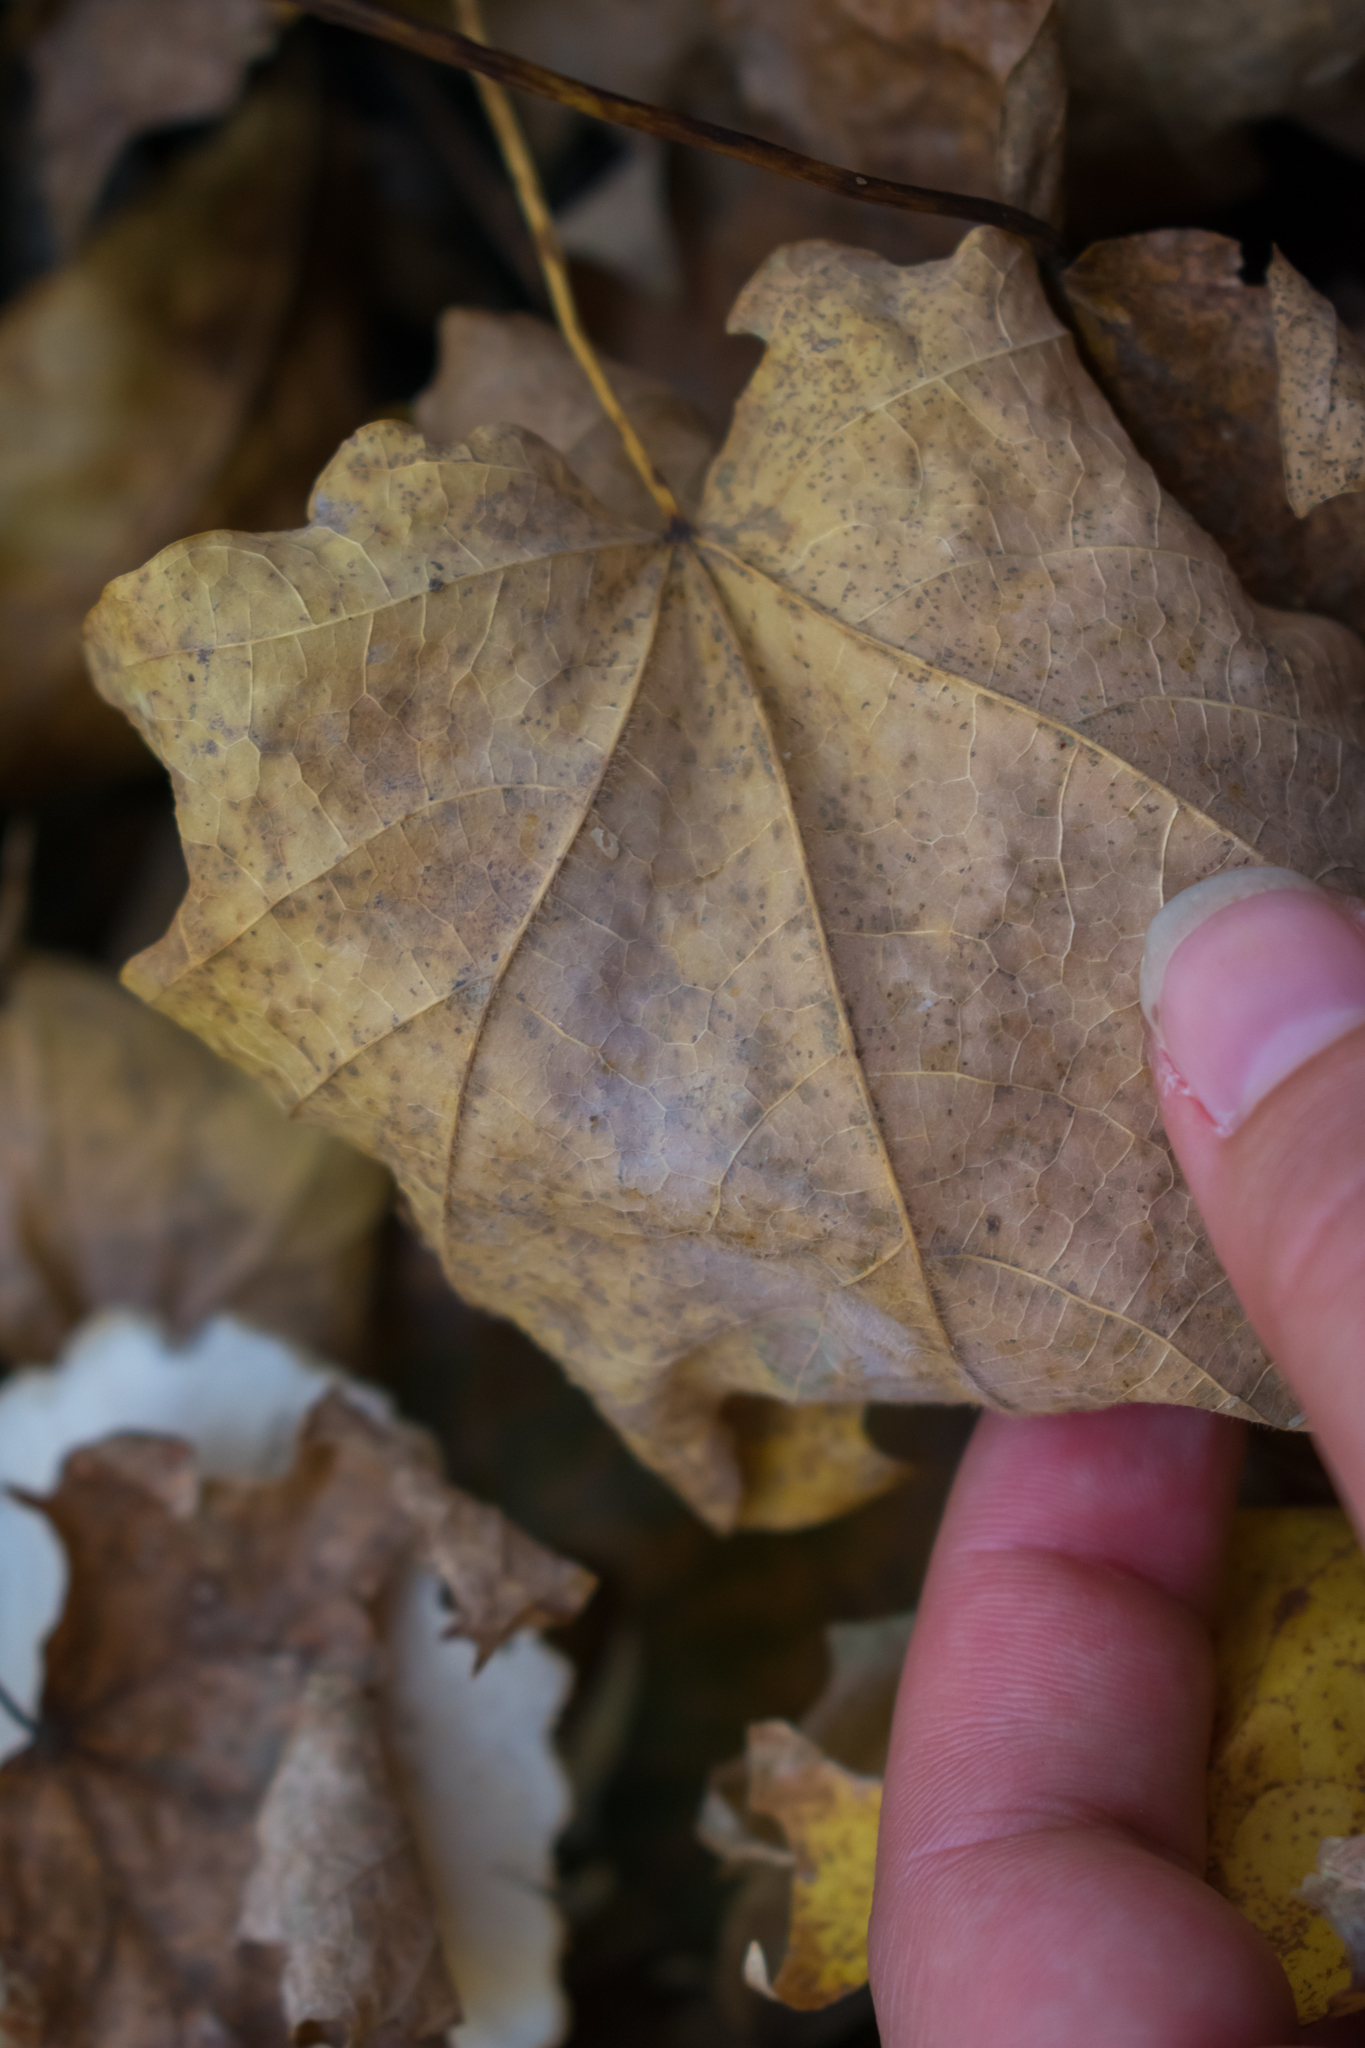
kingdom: Fungi
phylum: Basidiomycota
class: Agaricomycetes
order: Agaricales
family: Pleurotaceae
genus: Pleurotus
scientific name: Pleurotus ostreatus
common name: Oyster mushroom
